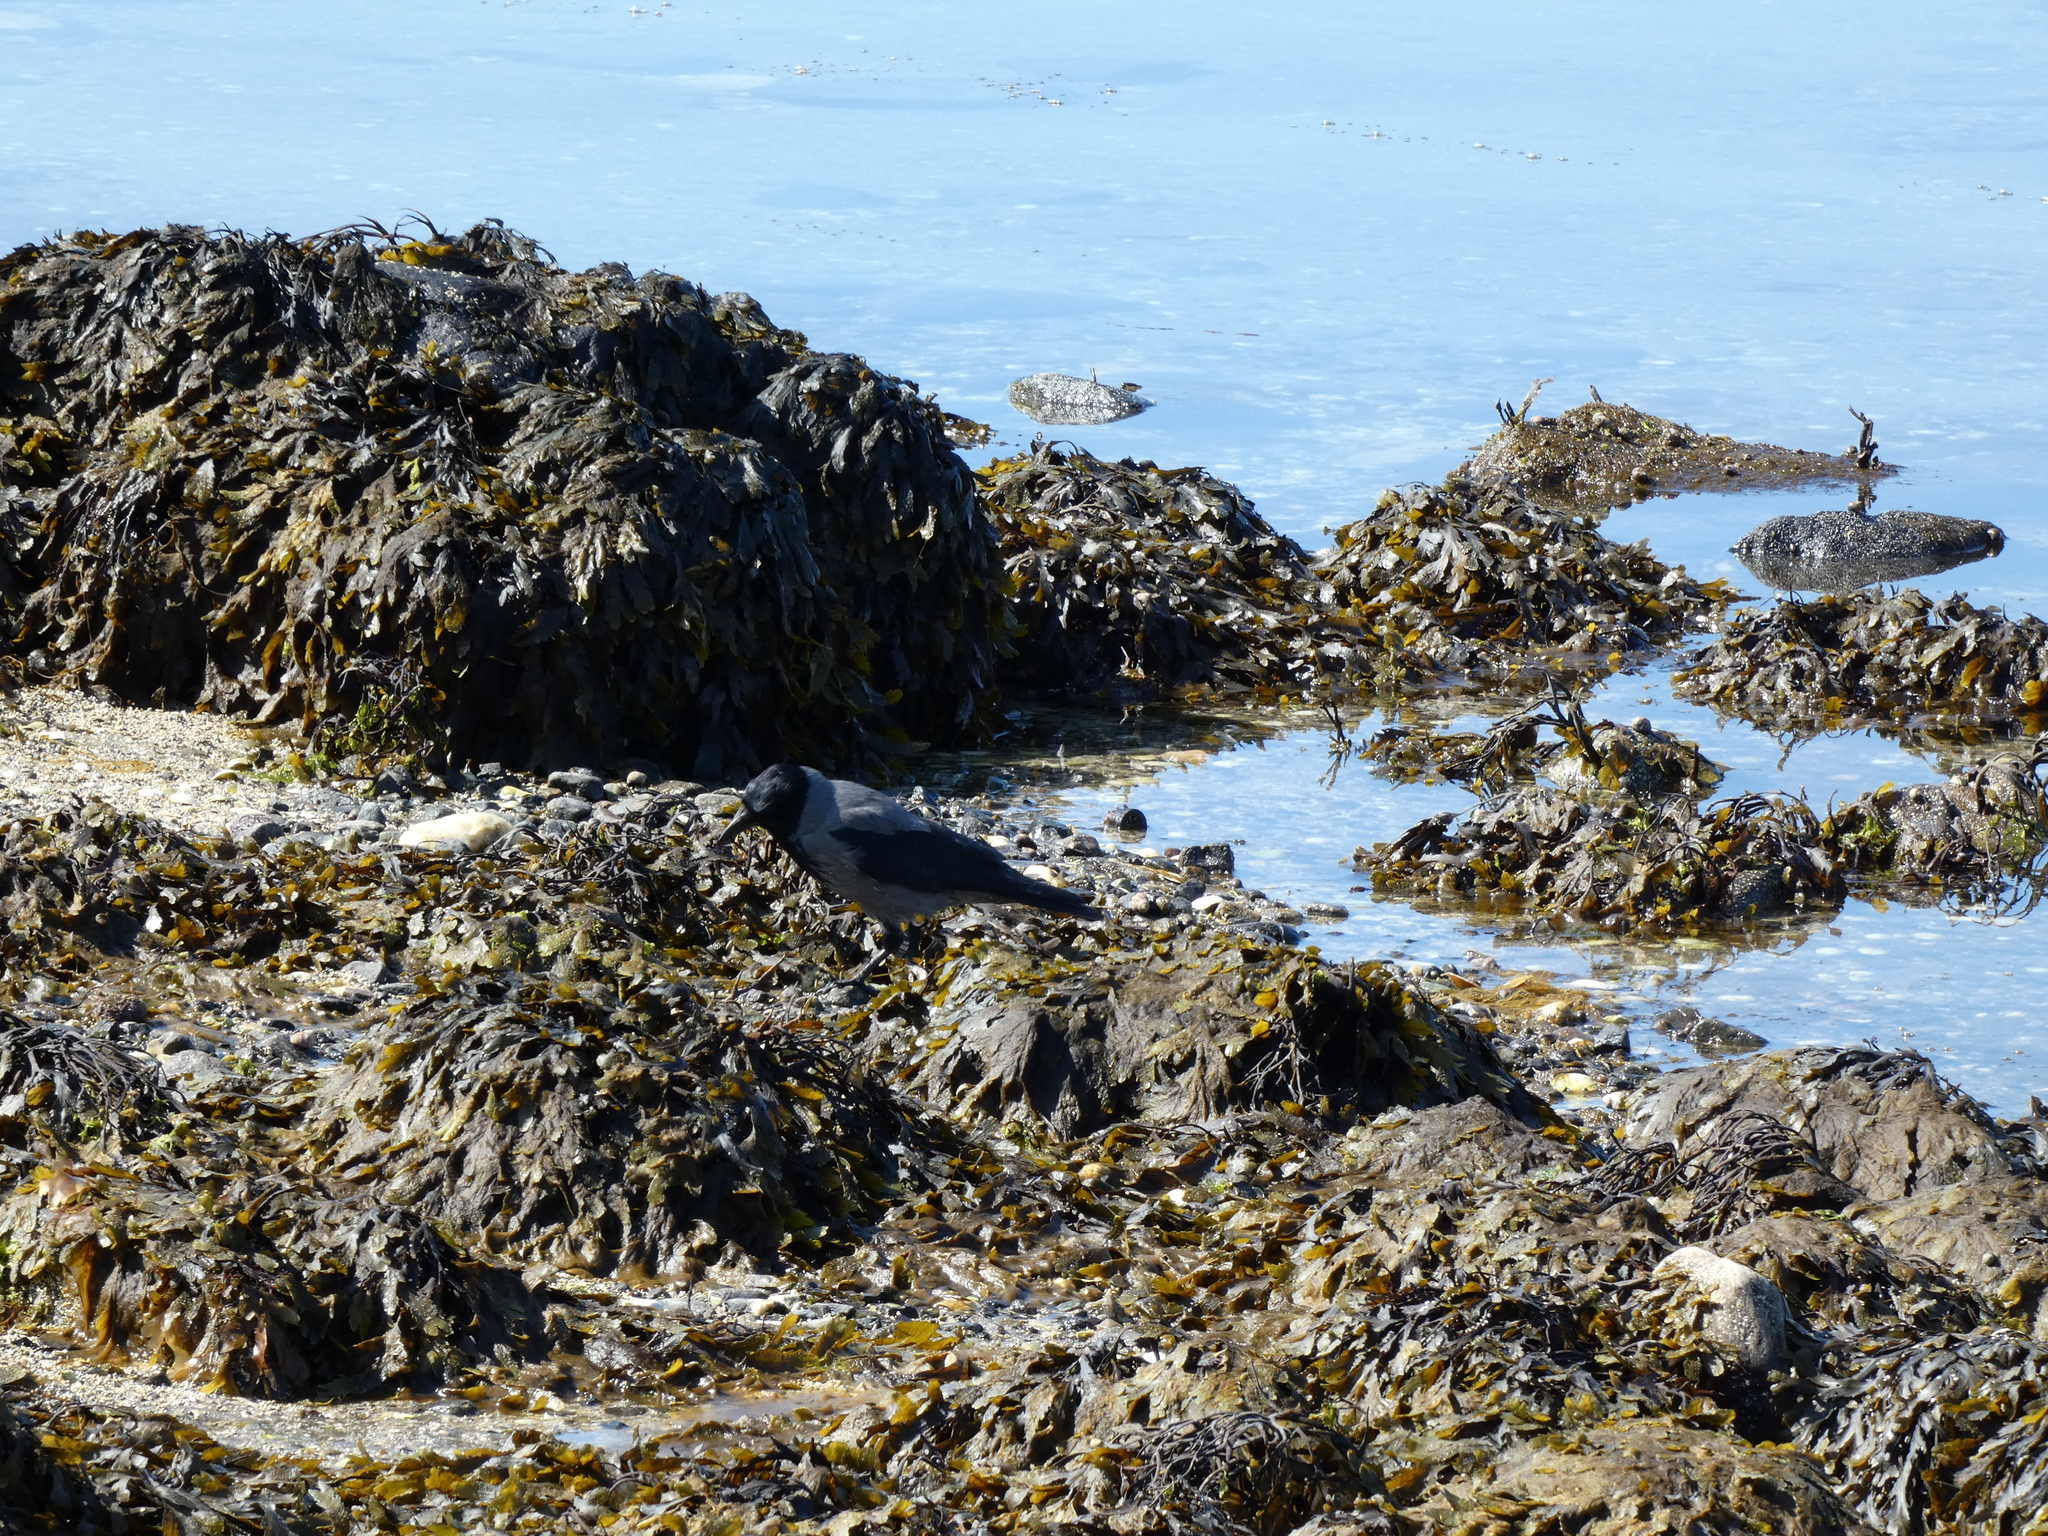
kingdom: Animalia
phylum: Chordata
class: Aves
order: Passeriformes
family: Corvidae
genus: Corvus
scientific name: Corvus cornix
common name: Hooded crow
